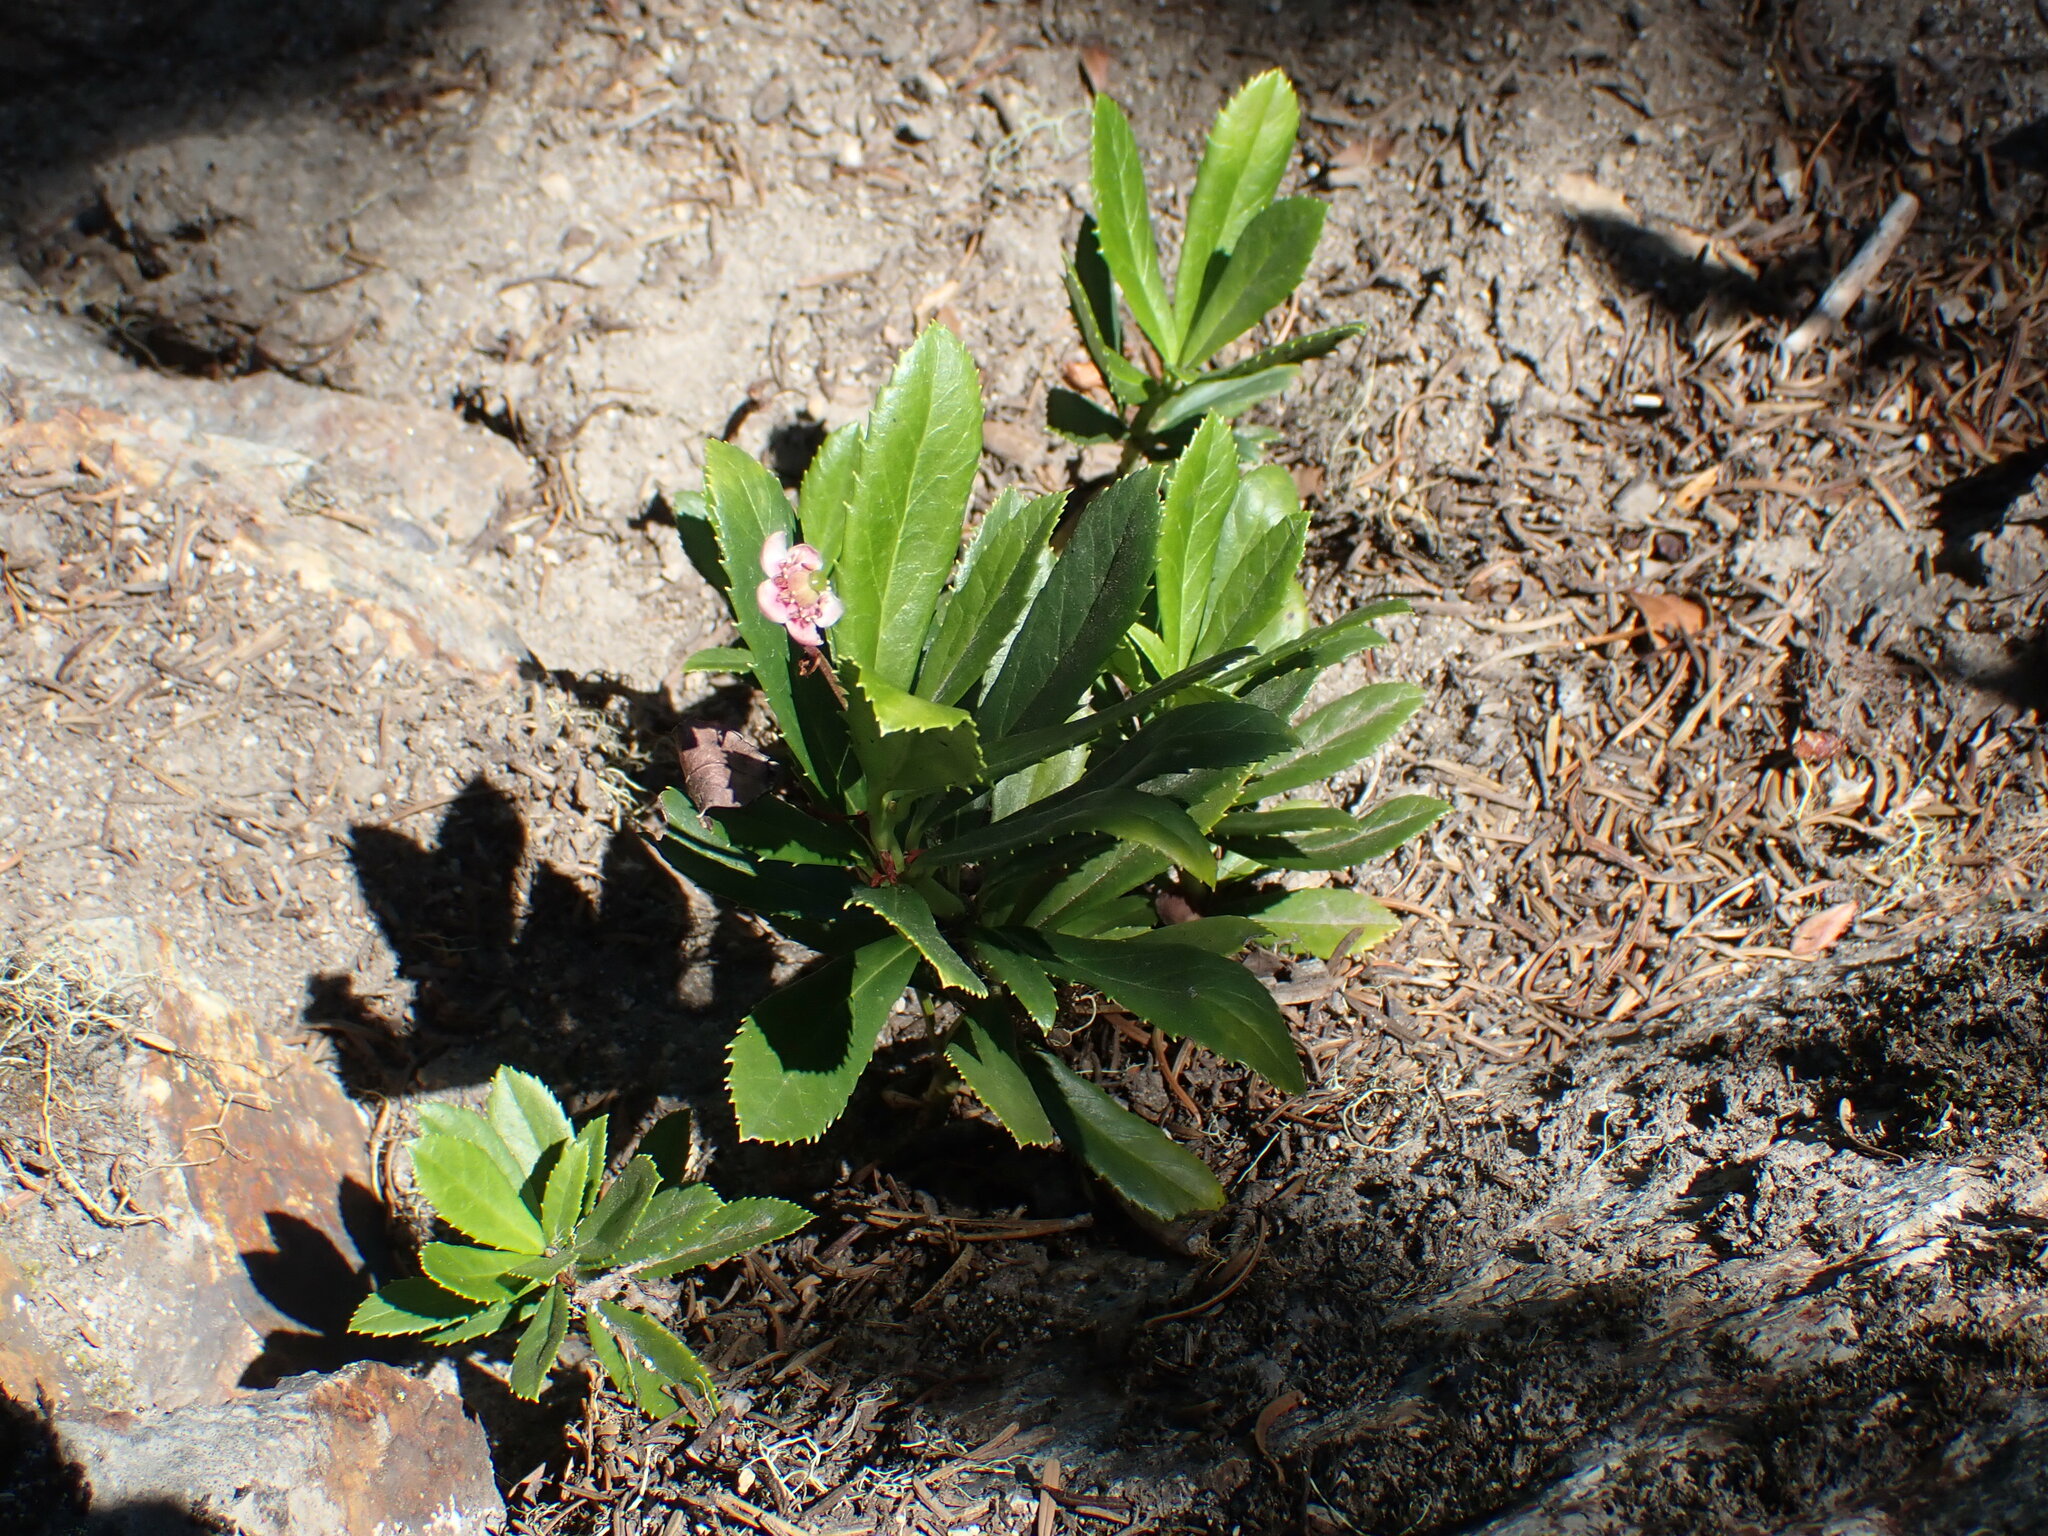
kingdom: Plantae
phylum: Tracheophyta
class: Magnoliopsida
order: Ericales
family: Ericaceae
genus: Chimaphila
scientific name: Chimaphila umbellata
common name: Pipsissewa
